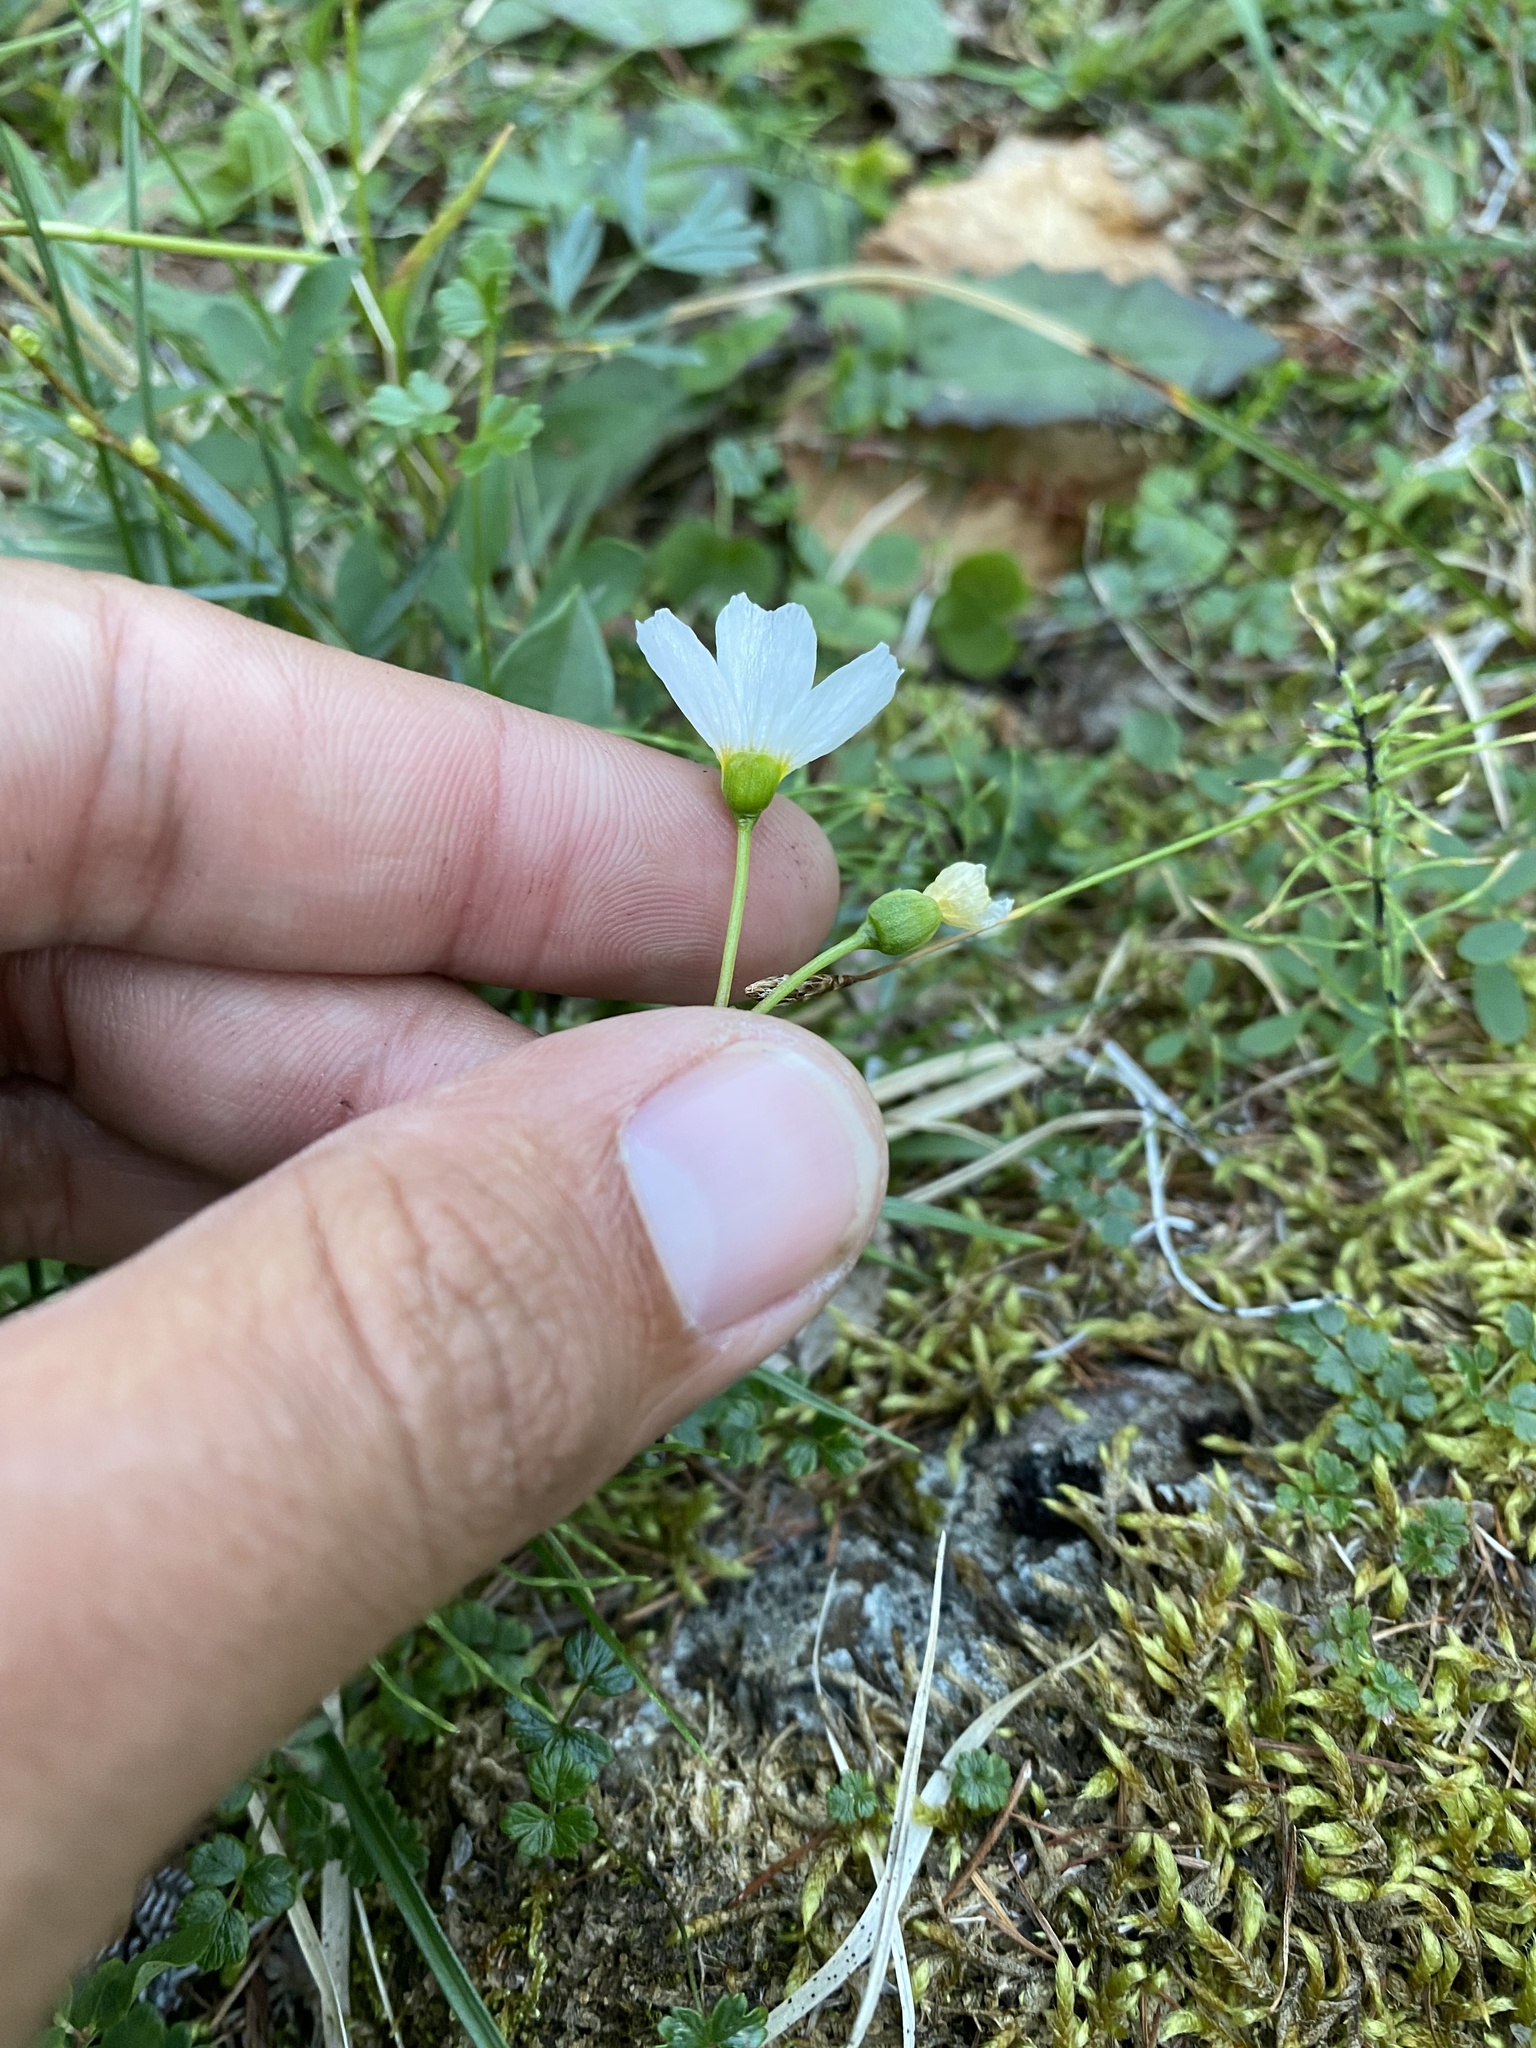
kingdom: Plantae
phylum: Tracheophyta
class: Magnoliopsida
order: Caryophyllales
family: Montiaceae
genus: Claytonia
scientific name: Claytonia joanneana
